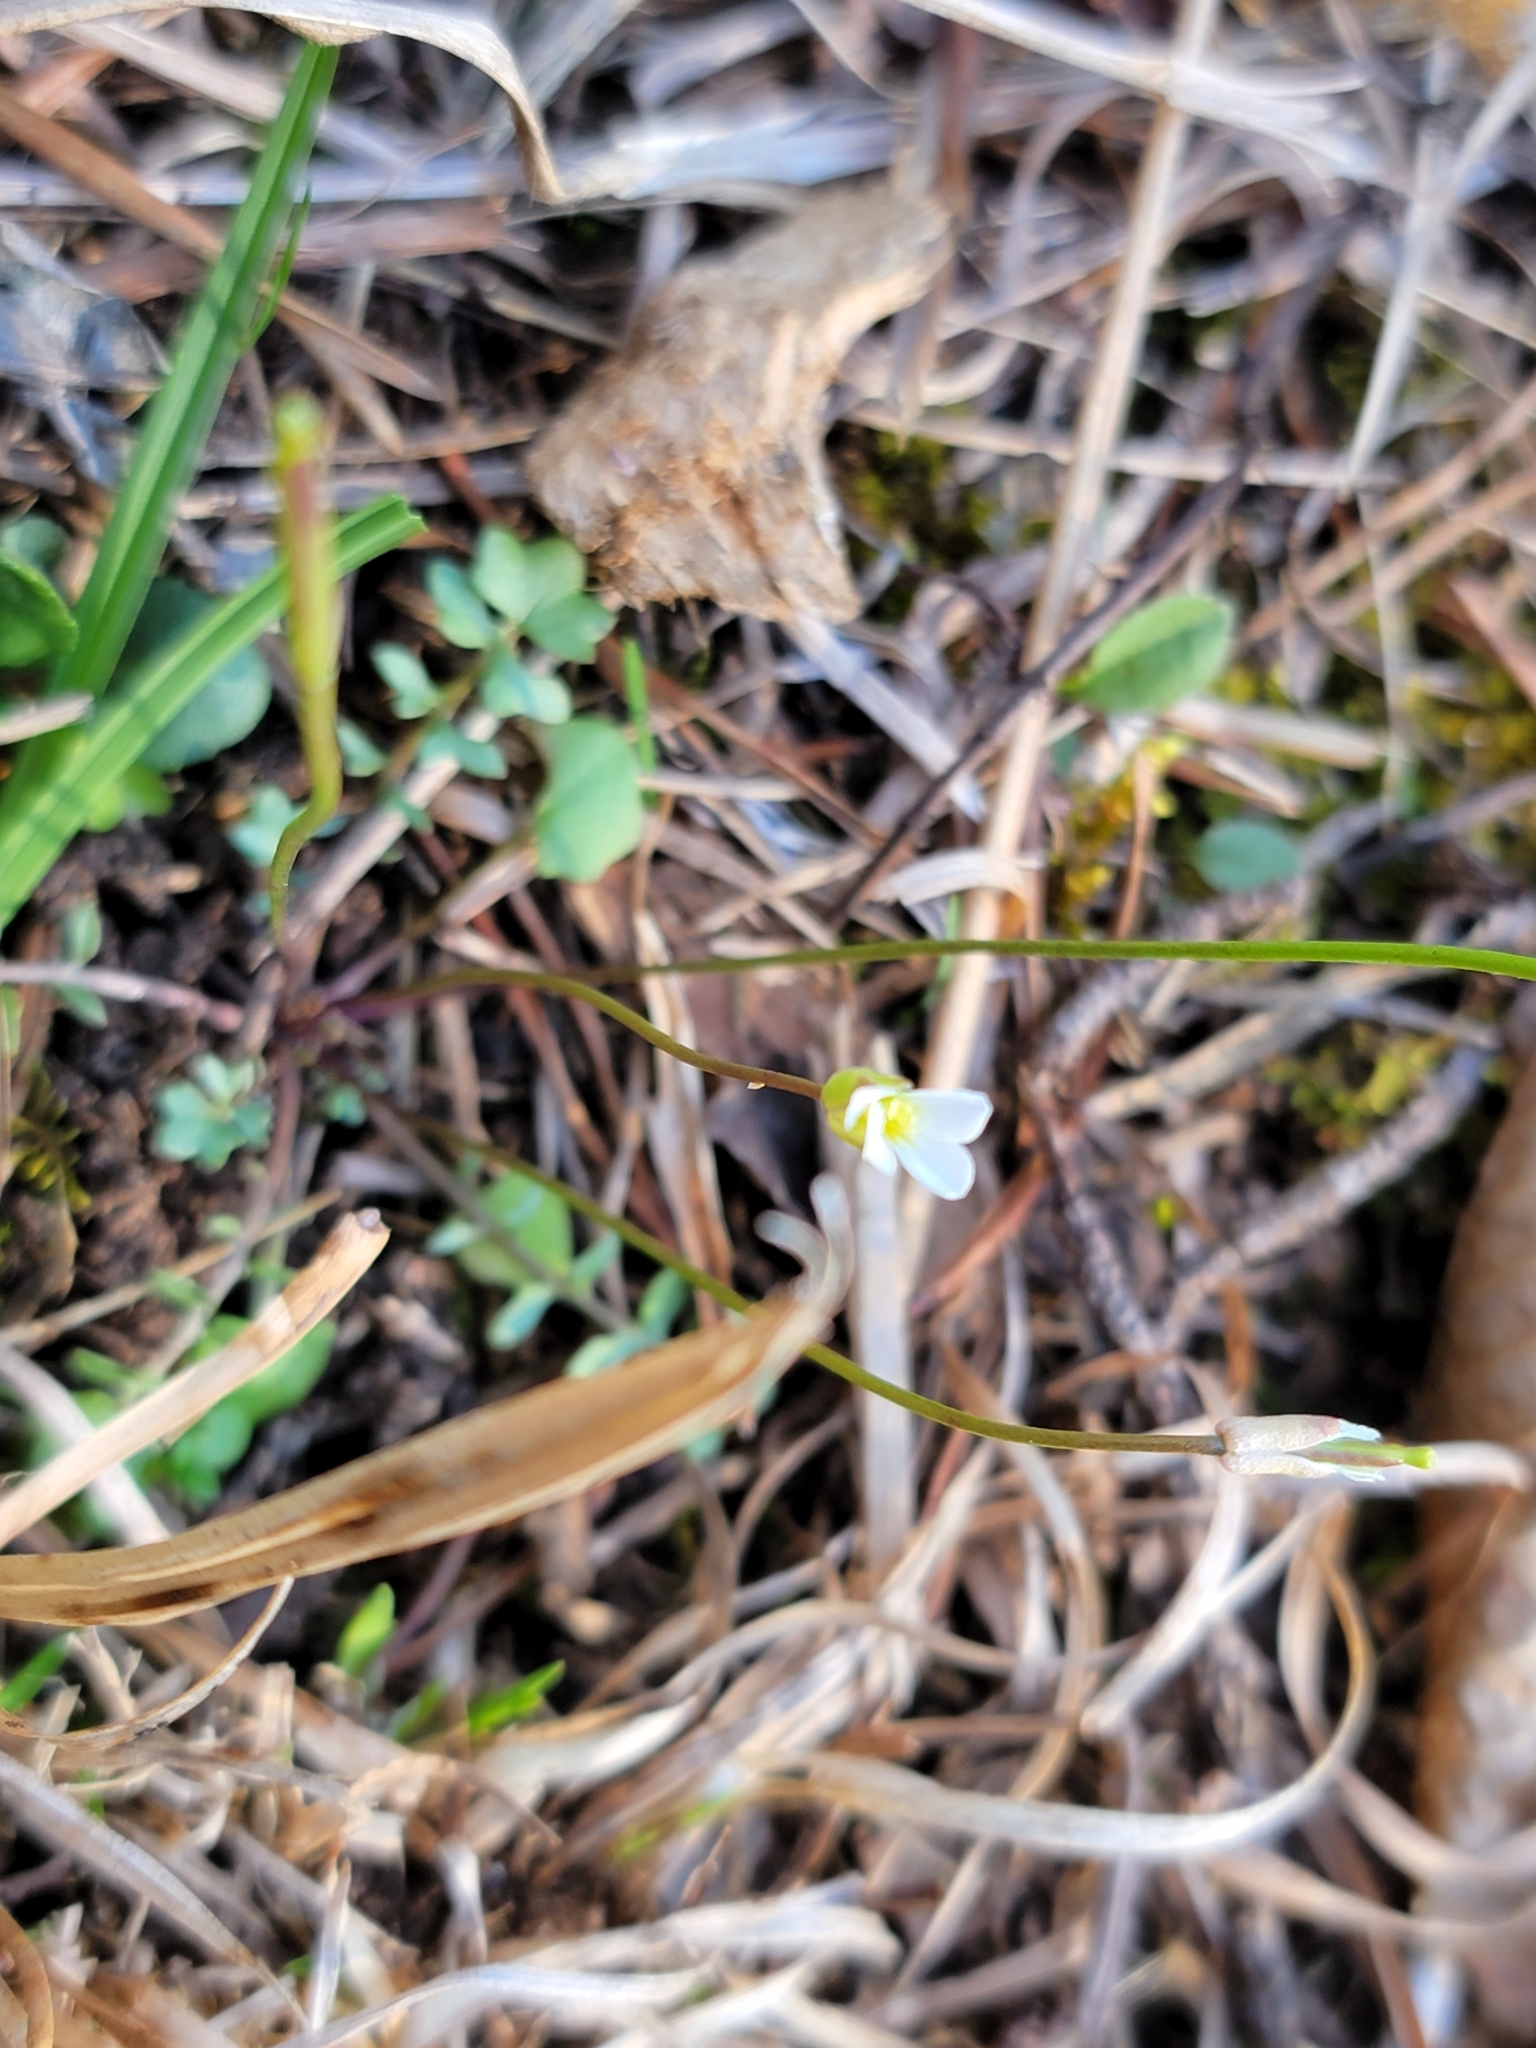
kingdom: Plantae
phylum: Tracheophyta
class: Magnoliopsida
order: Brassicales
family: Brassicaceae
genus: Leavenworthia
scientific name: Leavenworthia uniflora
